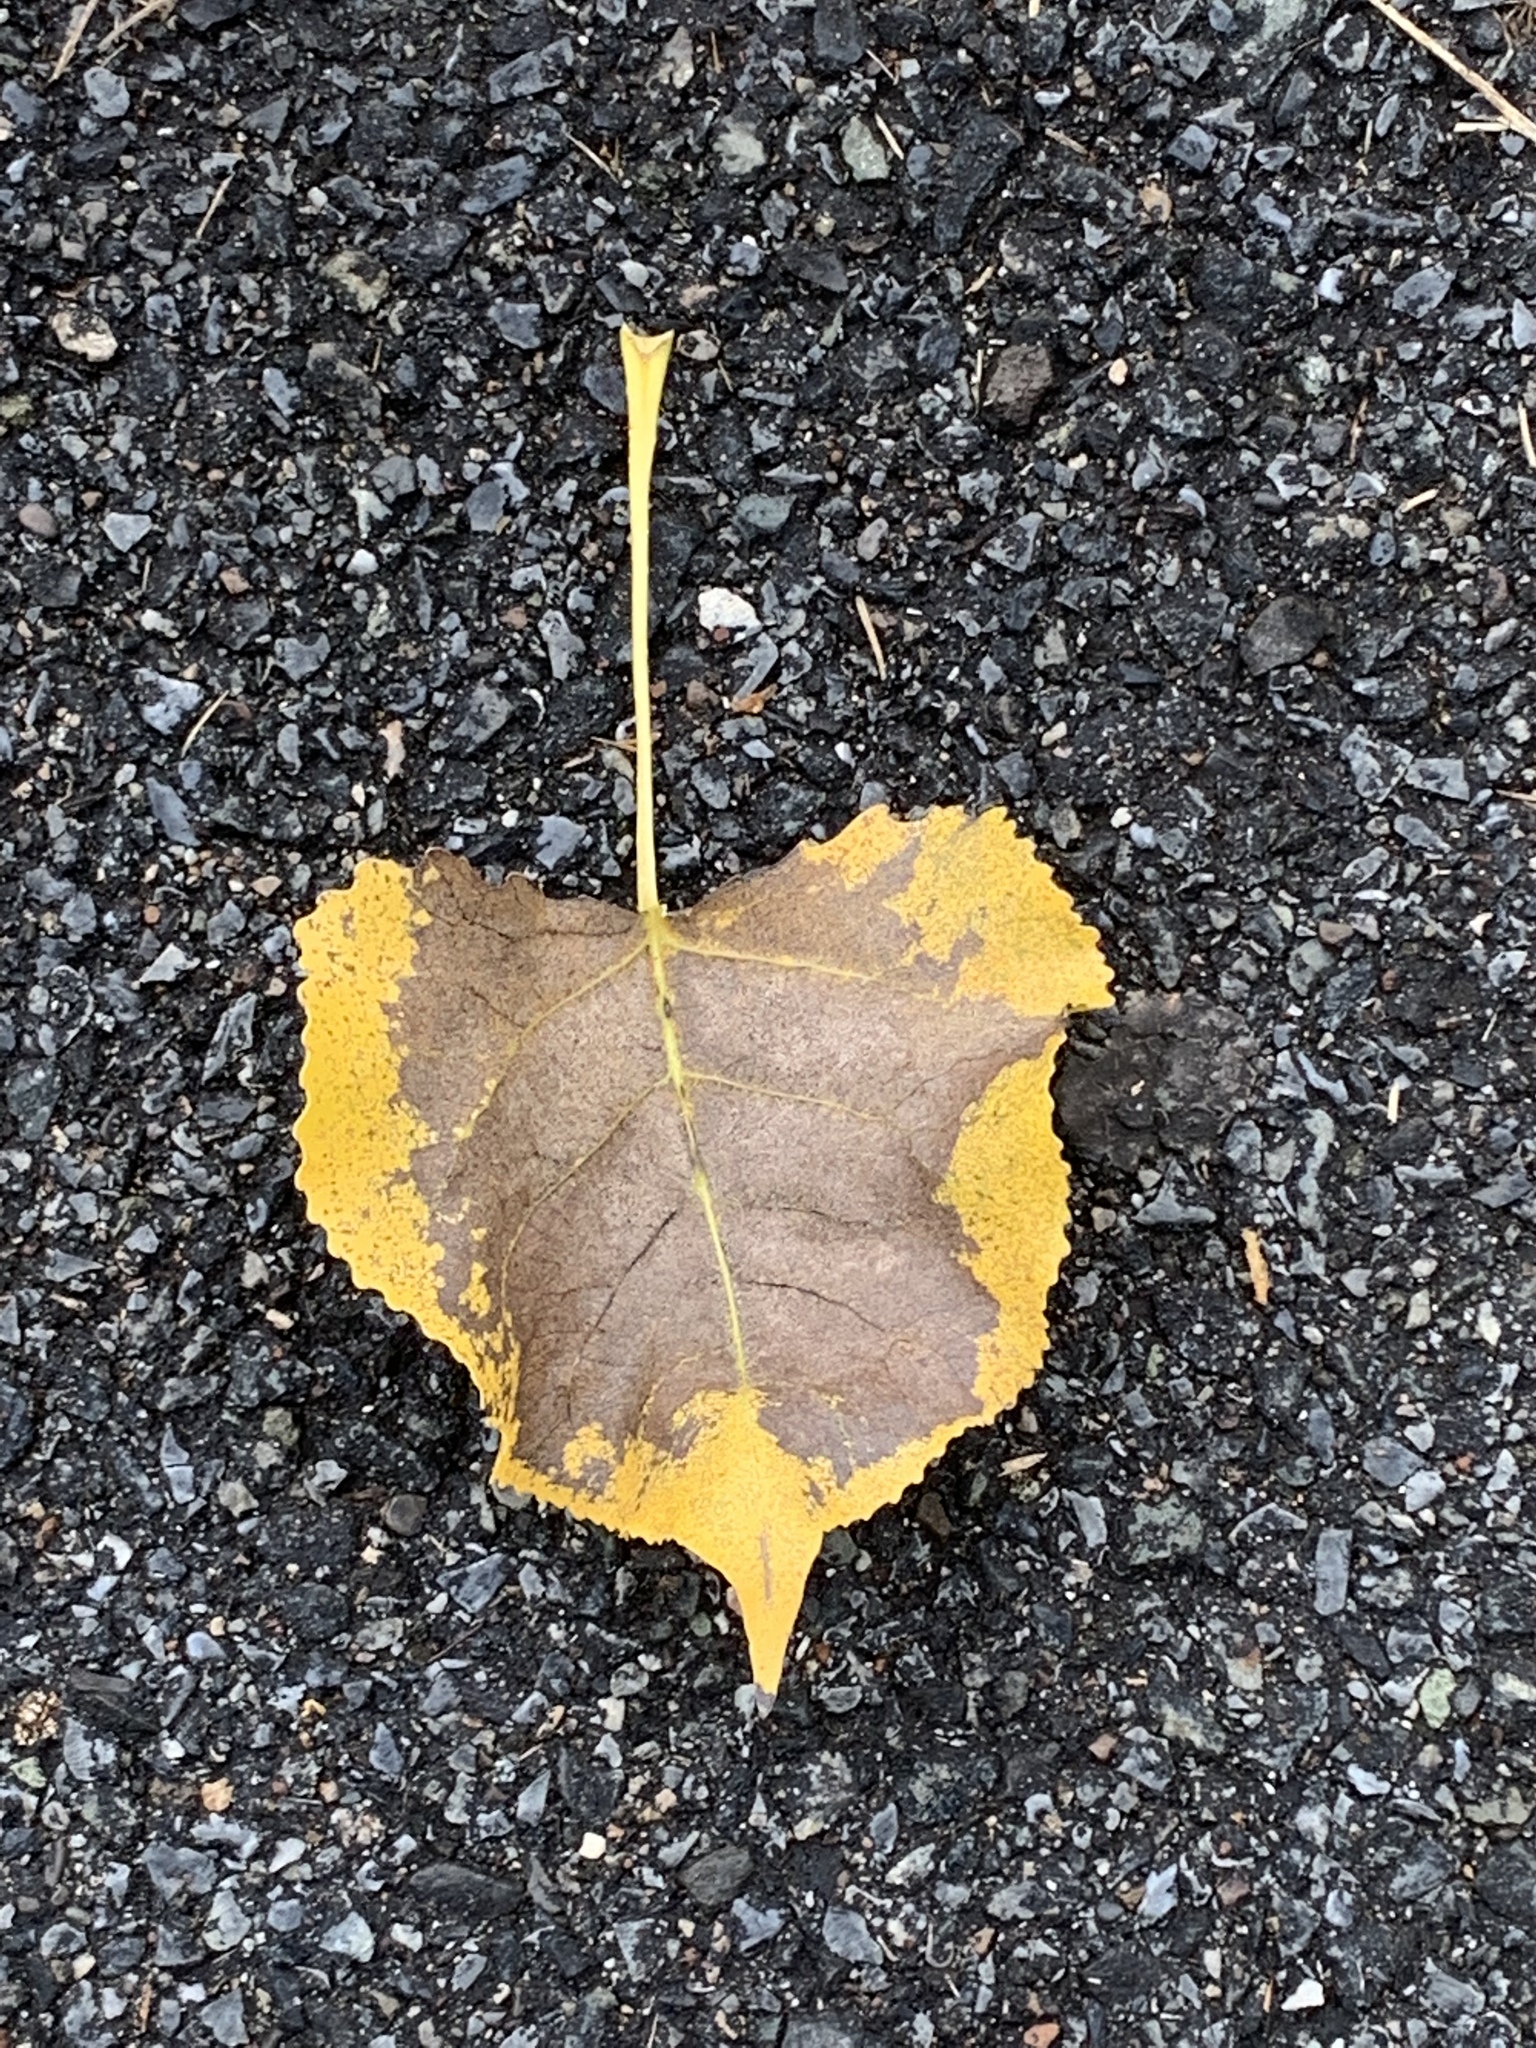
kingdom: Plantae
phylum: Tracheophyta
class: Magnoliopsida
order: Malpighiales
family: Salicaceae
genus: Populus
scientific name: Populus deltoides
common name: Eastern cottonwood
